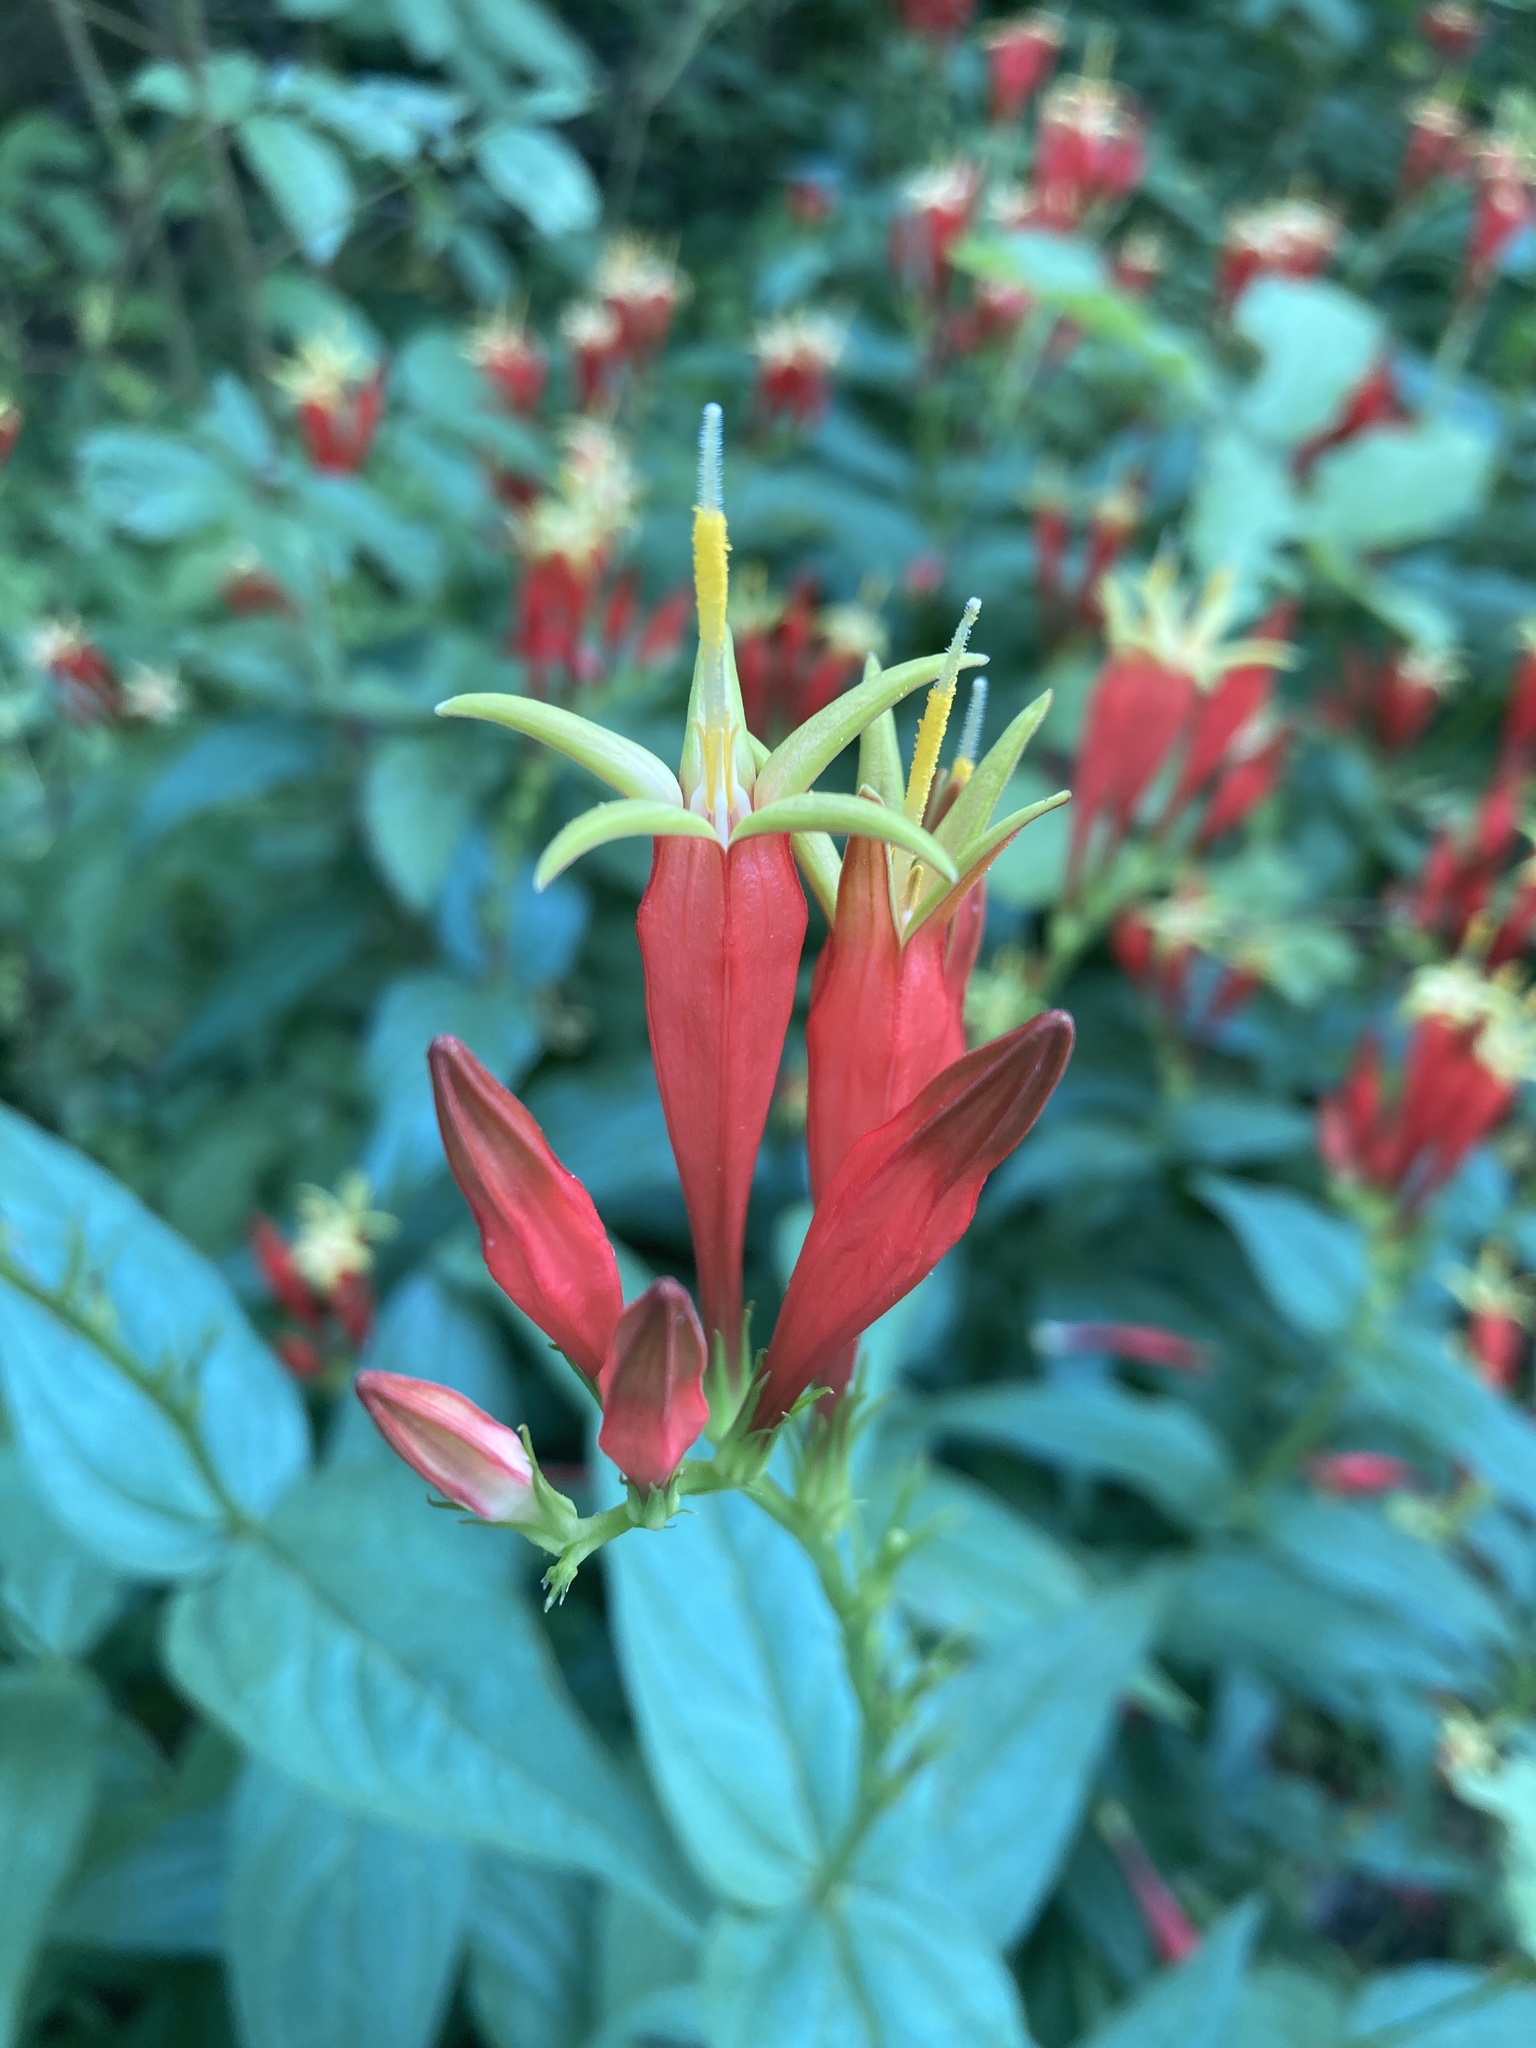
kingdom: Plantae
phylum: Tracheophyta
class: Magnoliopsida
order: Gentianales
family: Loganiaceae
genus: Spigelia
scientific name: Spigelia marilandica
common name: Indian-pink
